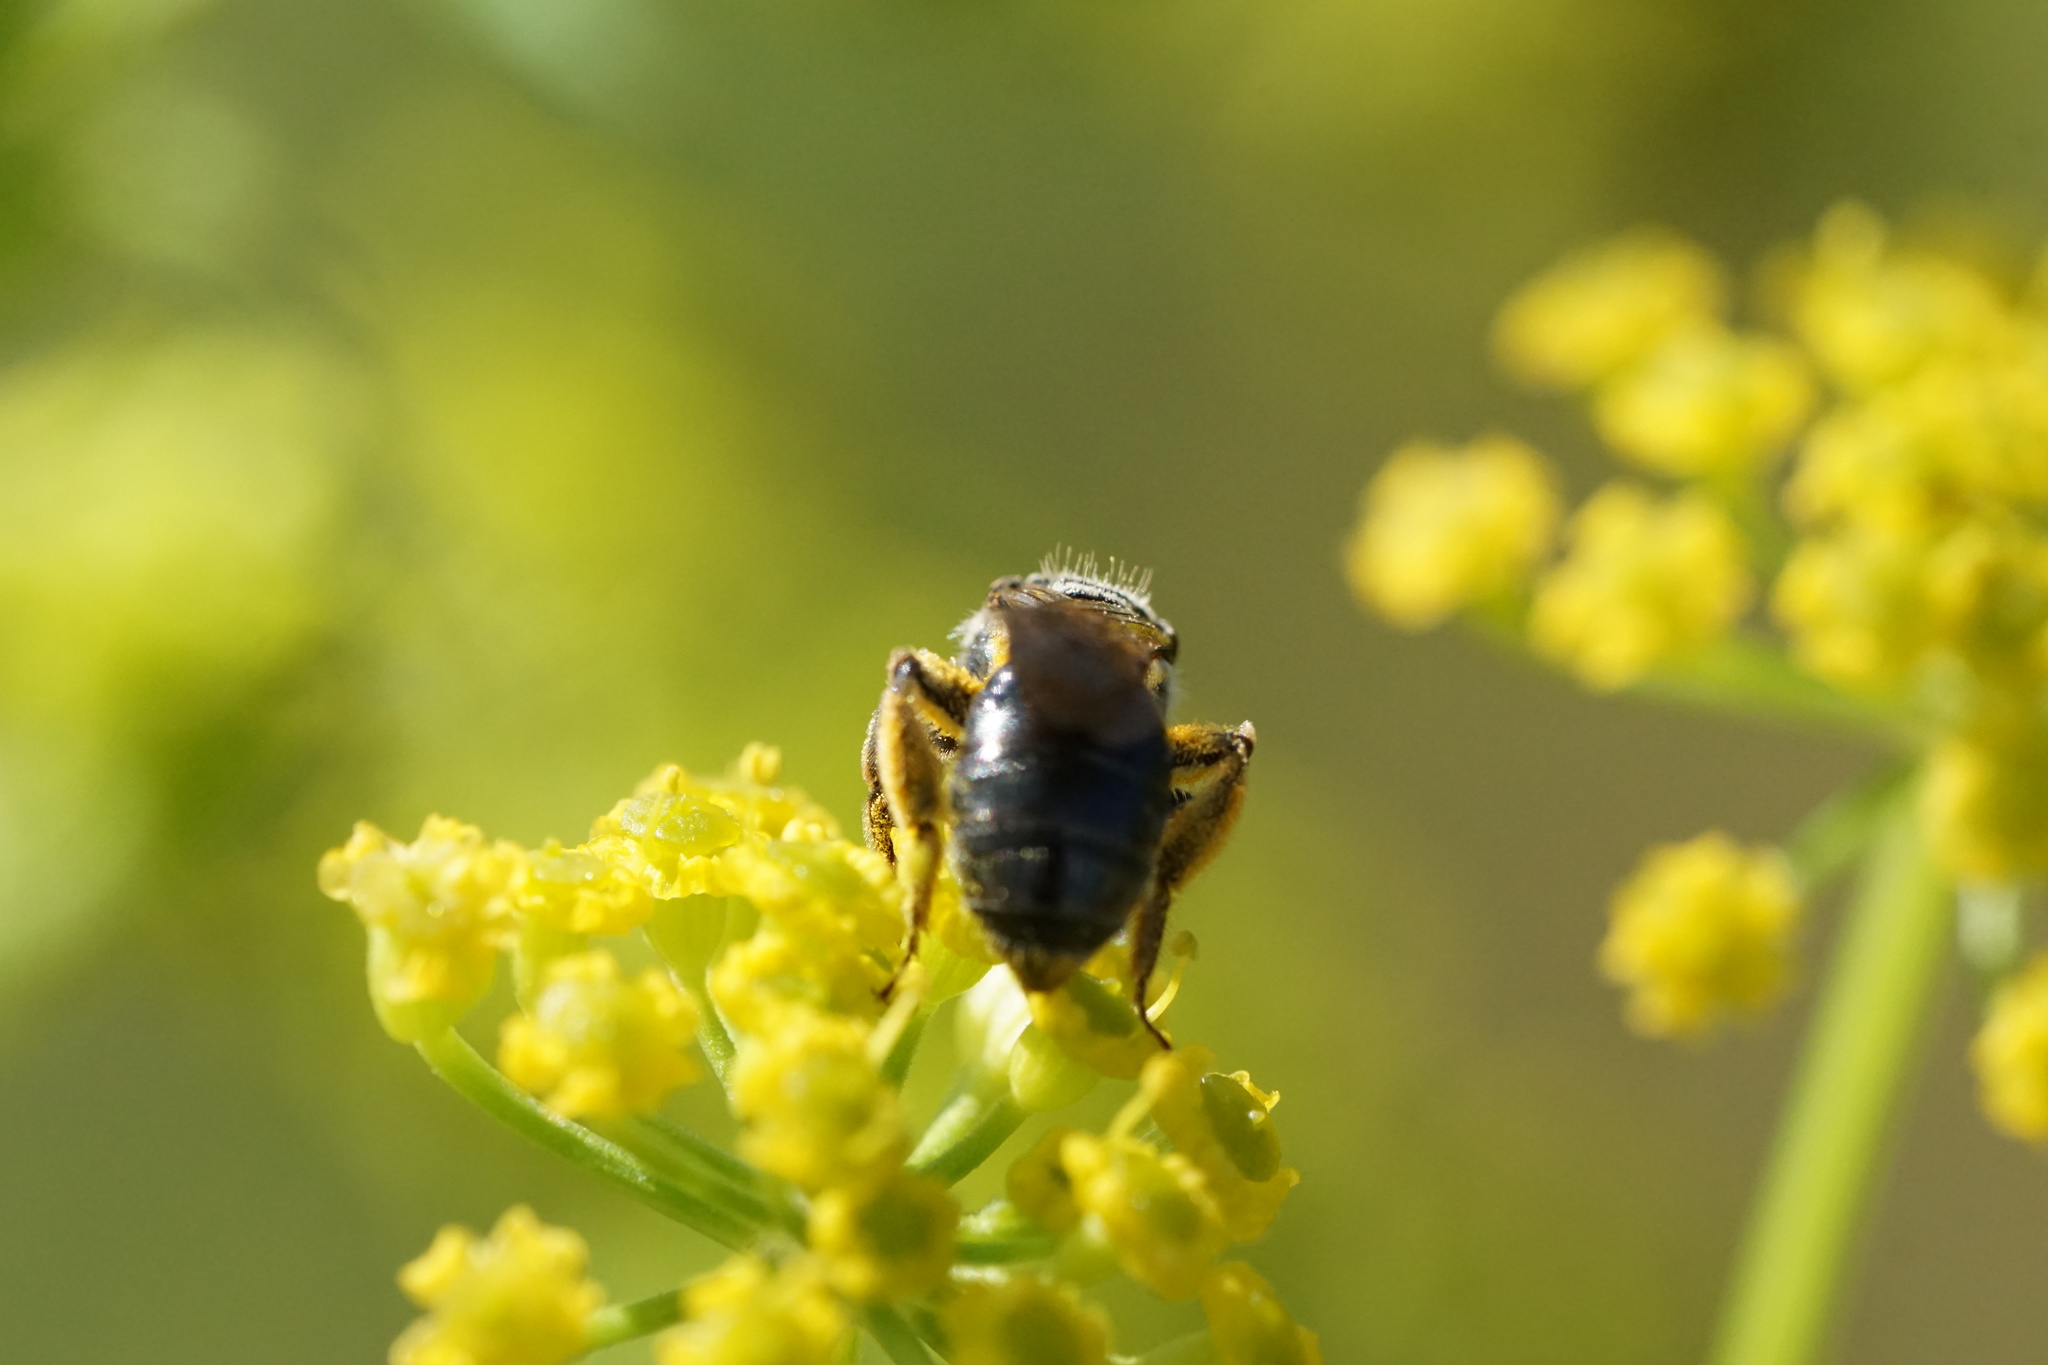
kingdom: Animalia
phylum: Arthropoda
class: Insecta
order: Hymenoptera
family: Andrenidae
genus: Andrena
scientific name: Andrena nuda
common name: Nude mining bee
